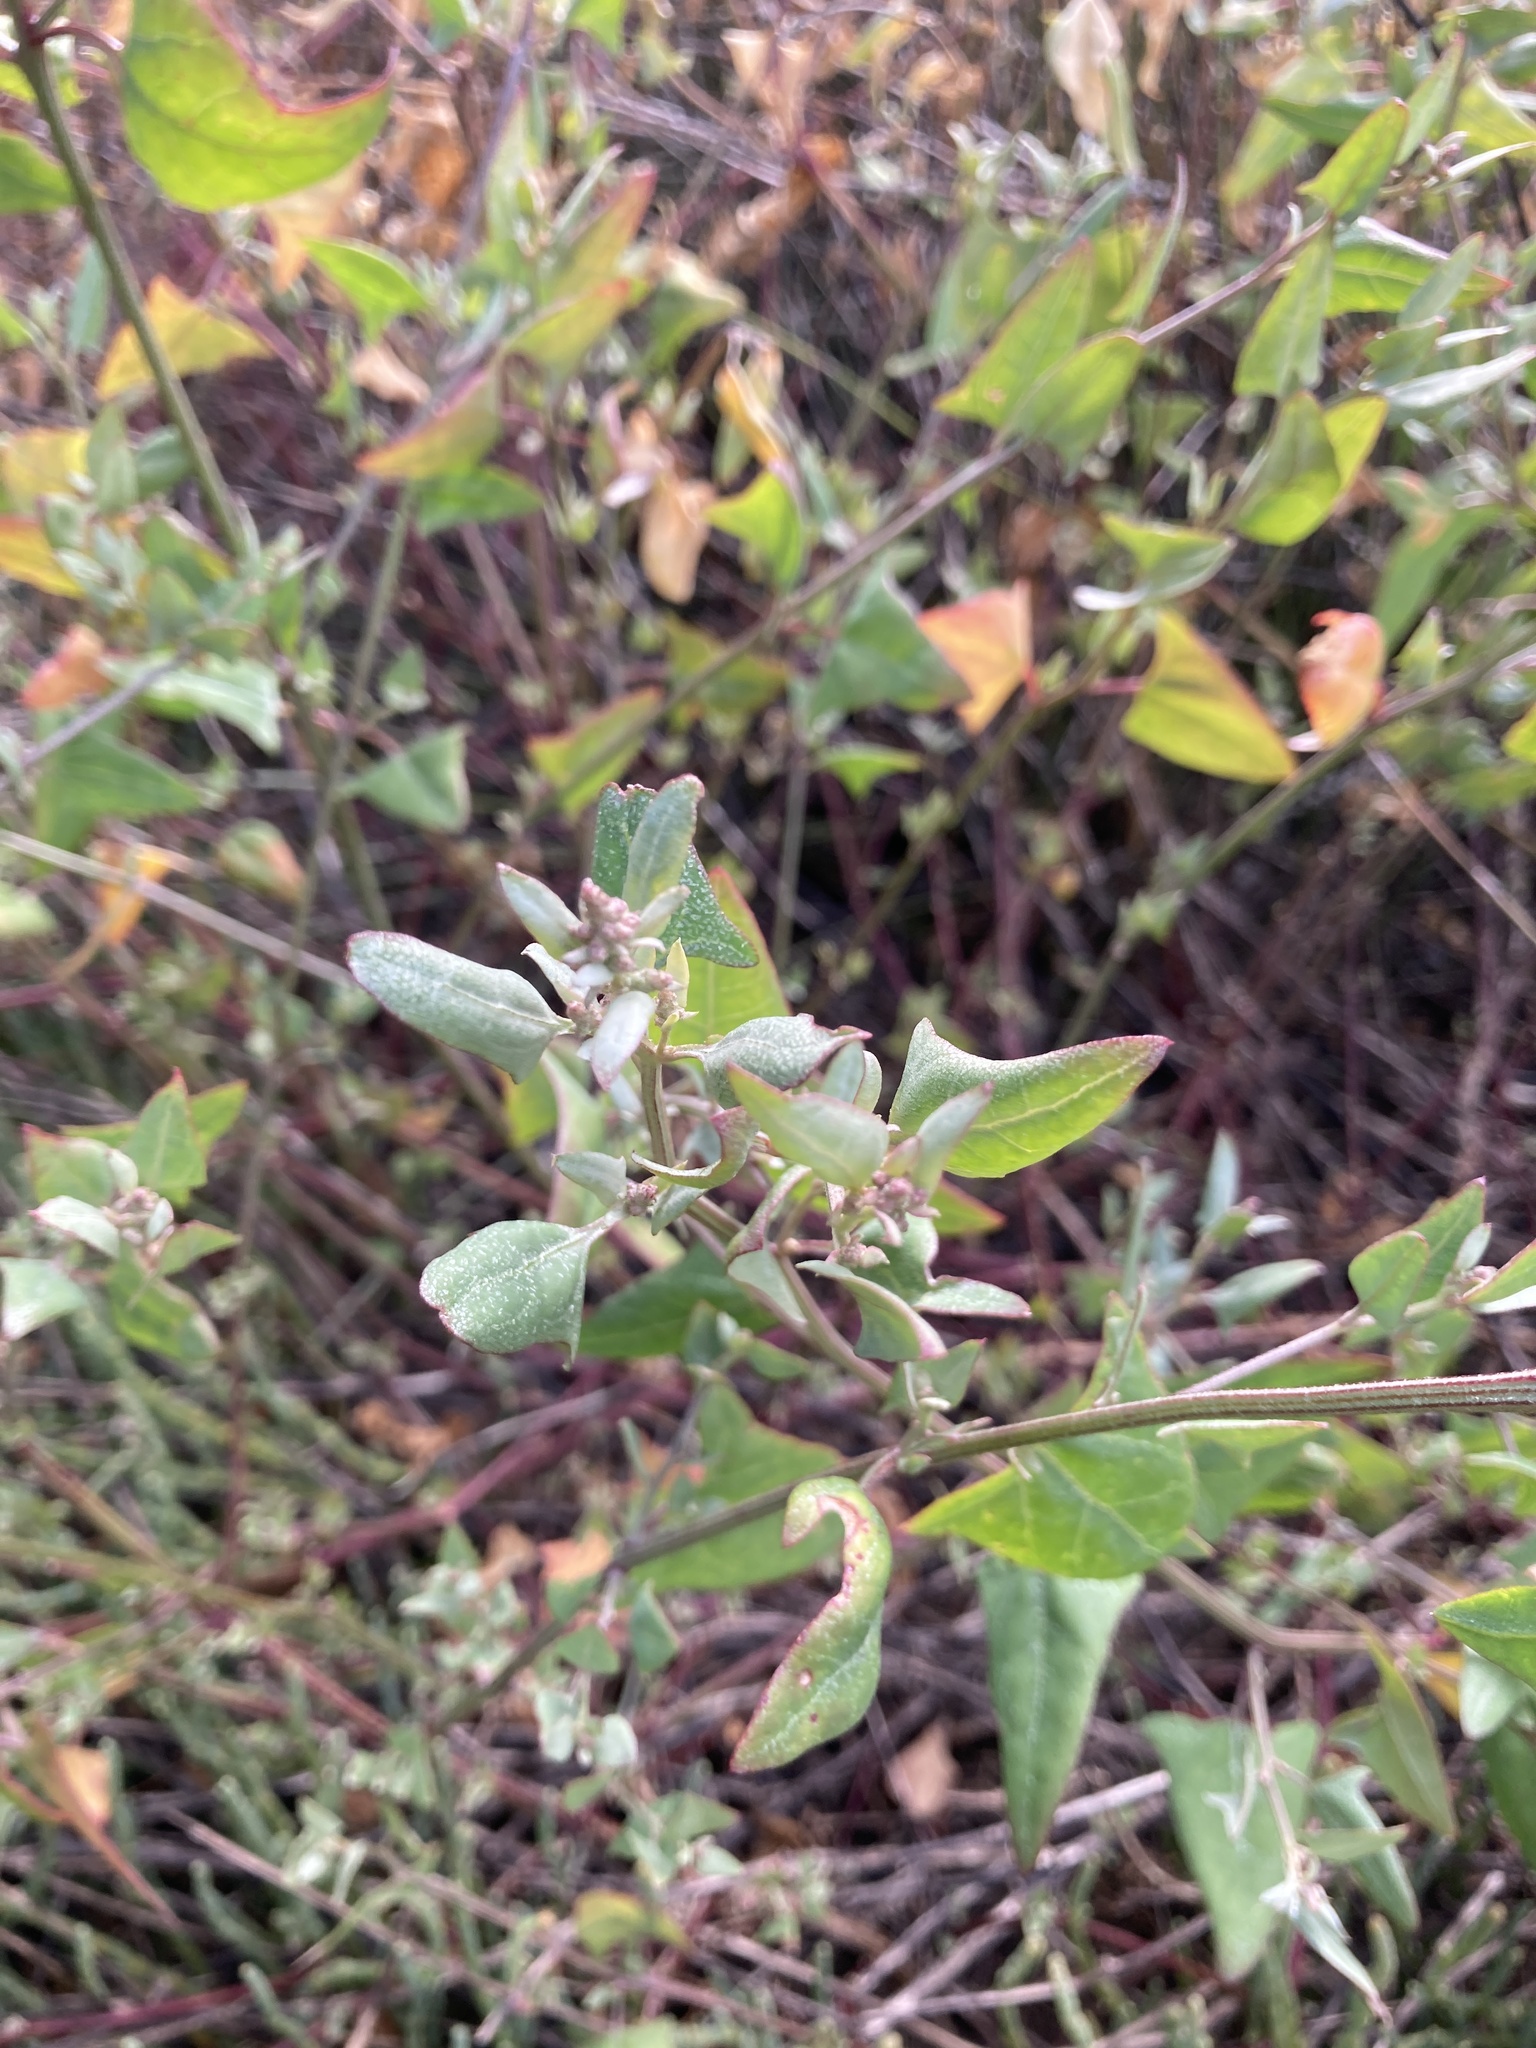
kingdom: Plantae
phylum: Tracheophyta
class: Magnoliopsida
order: Caryophyllales
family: Amaranthaceae
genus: Atriplex
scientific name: Atriplex prostrata
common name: Spear-leaved orache
